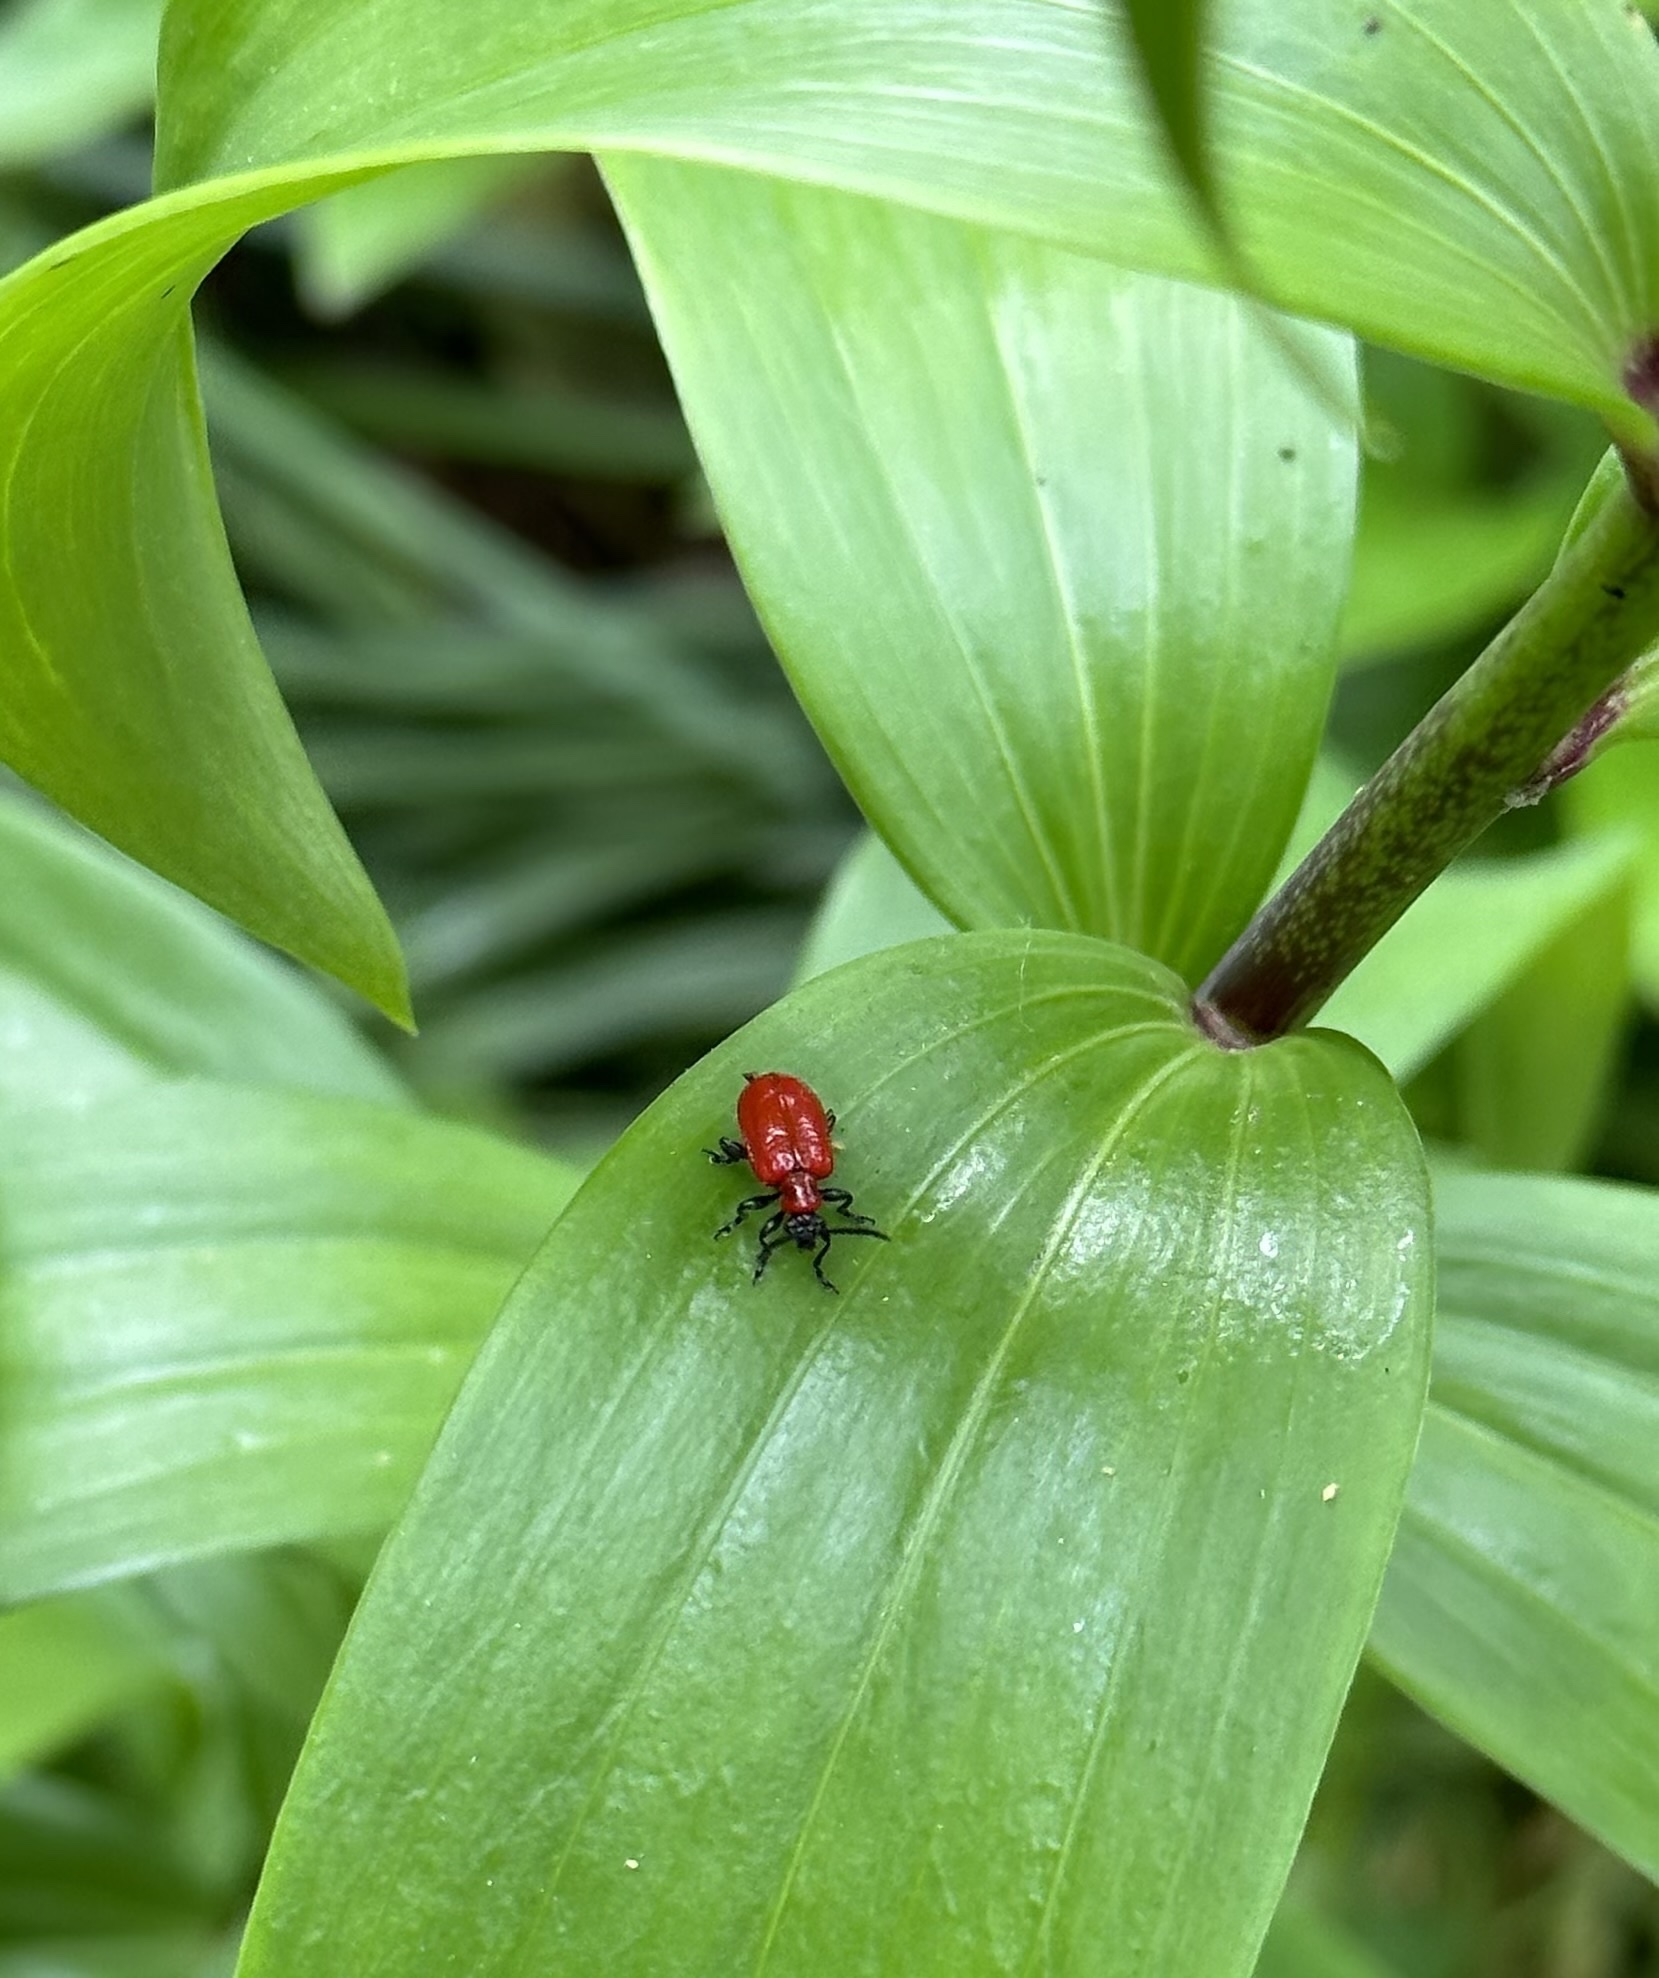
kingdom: Animalia
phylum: Arthropoda
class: Insecta
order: Coleoptera
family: Chrysomelidae
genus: Lilioceris
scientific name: Lilioceris lilii
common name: Lily beetle
